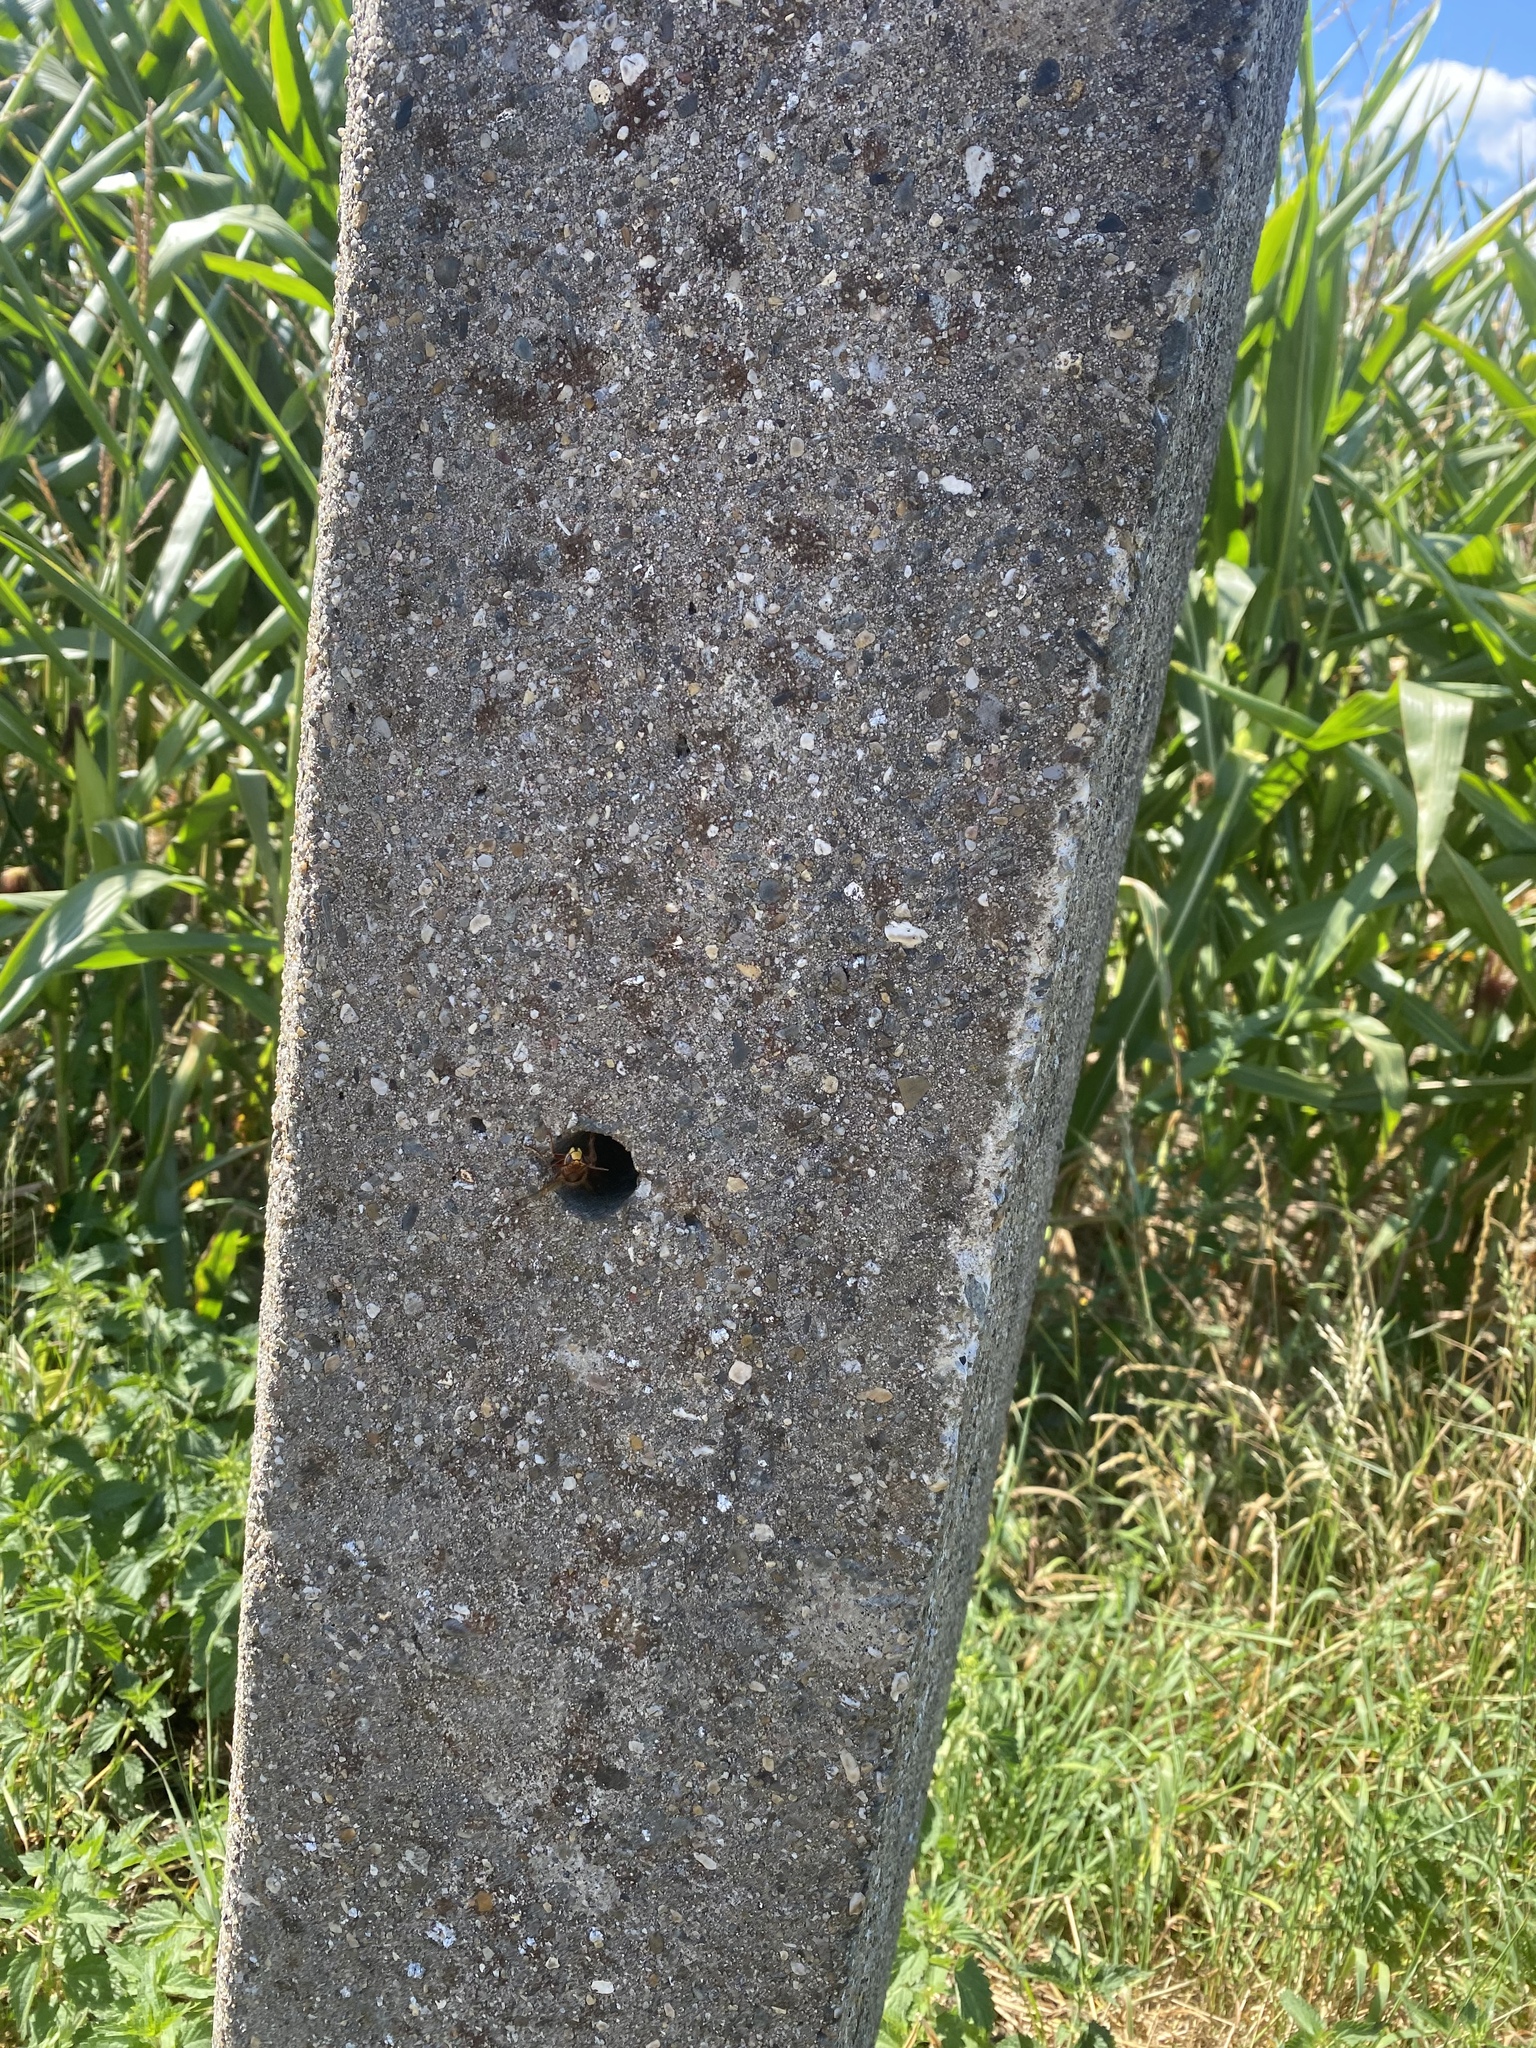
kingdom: Animalia
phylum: Arthropoda
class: Insecta
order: Hymenoptera
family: Vespidae
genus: Vespa
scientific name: Vespa crabro
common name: Hornet
